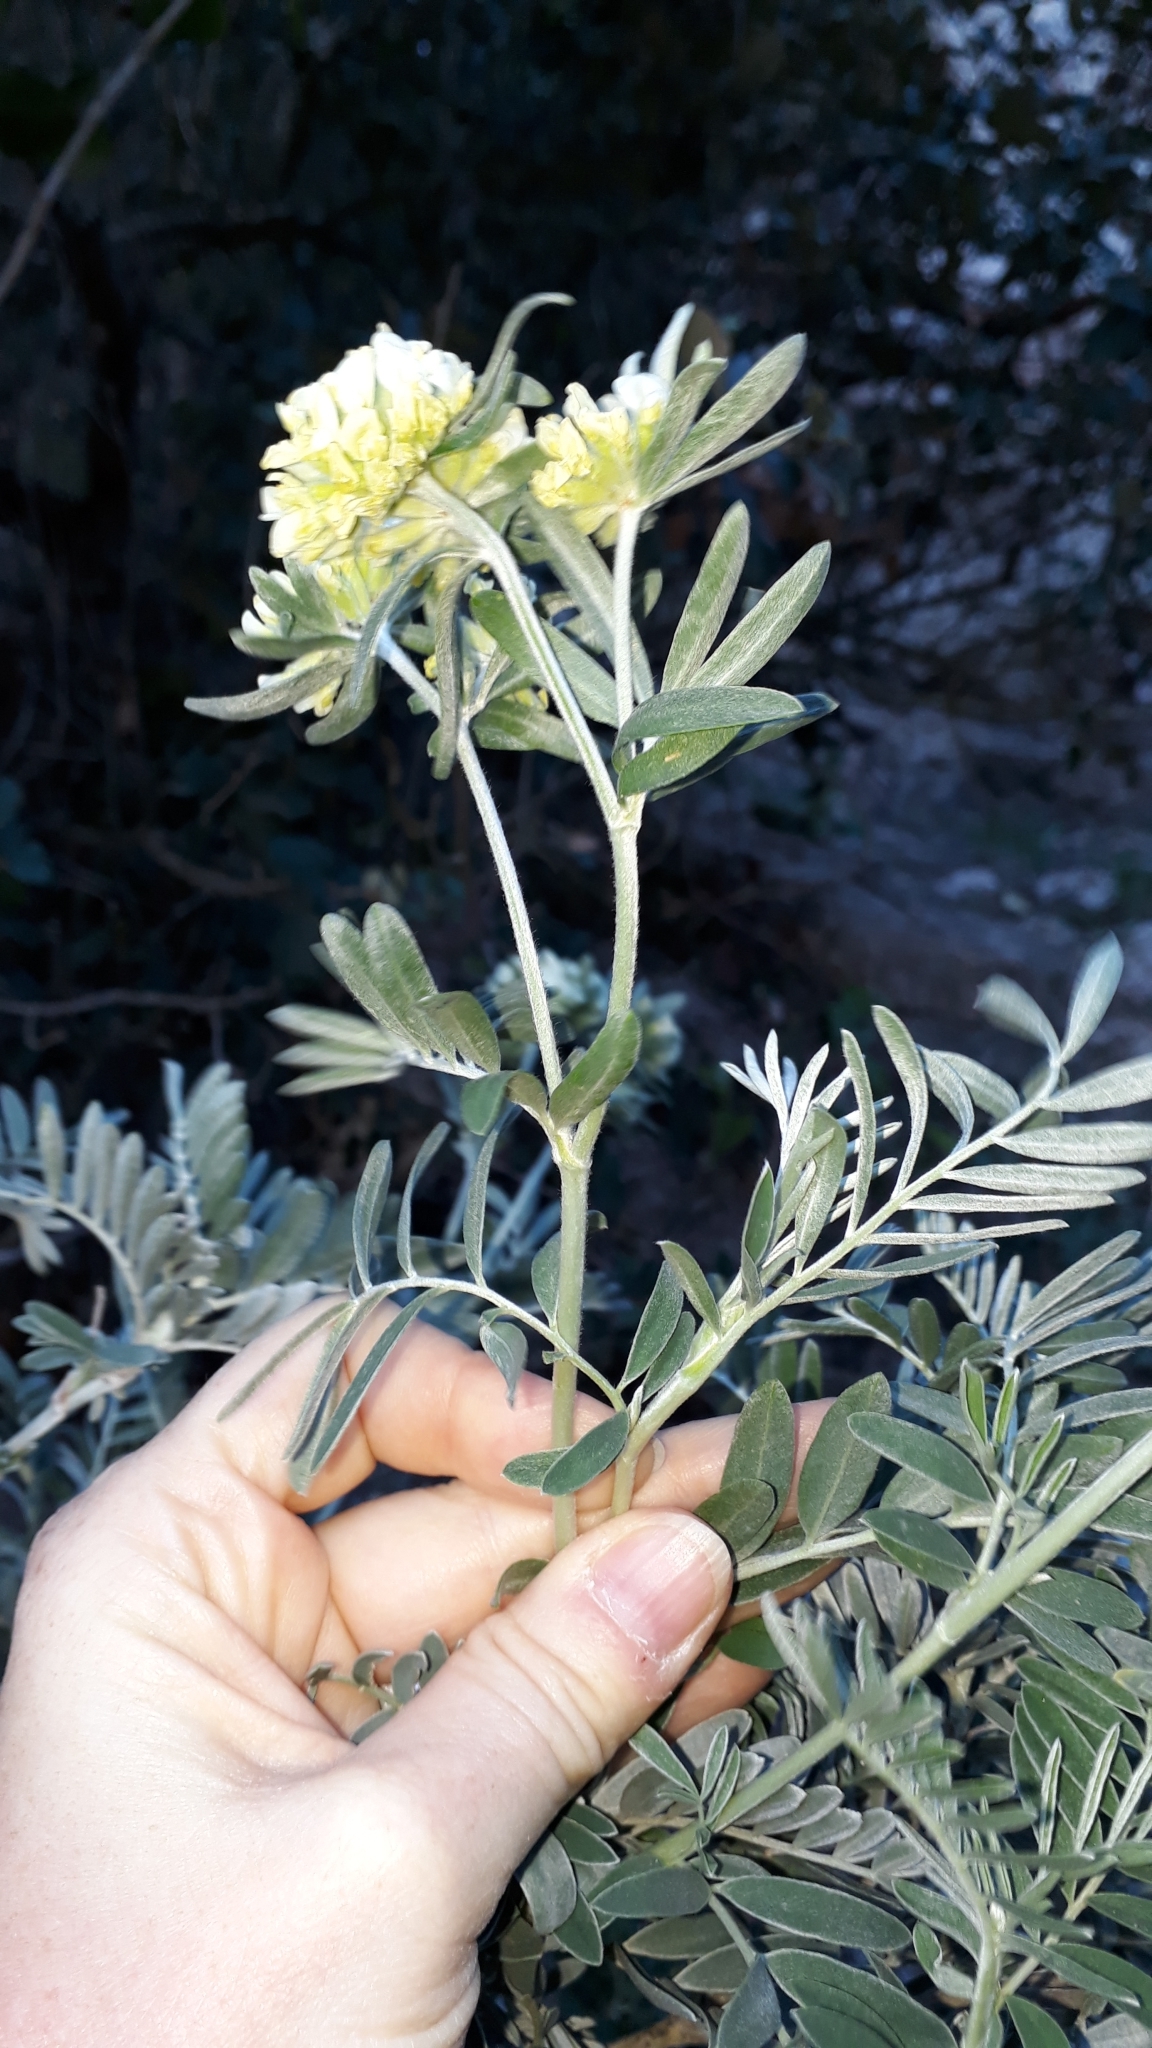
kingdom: Plantae
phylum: Tracheophyta
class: Magnoliopsida
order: Fabales
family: Fabaceae
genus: Anthyllis
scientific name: Anthyllis barba-jovis
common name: Jupiter's-beard
